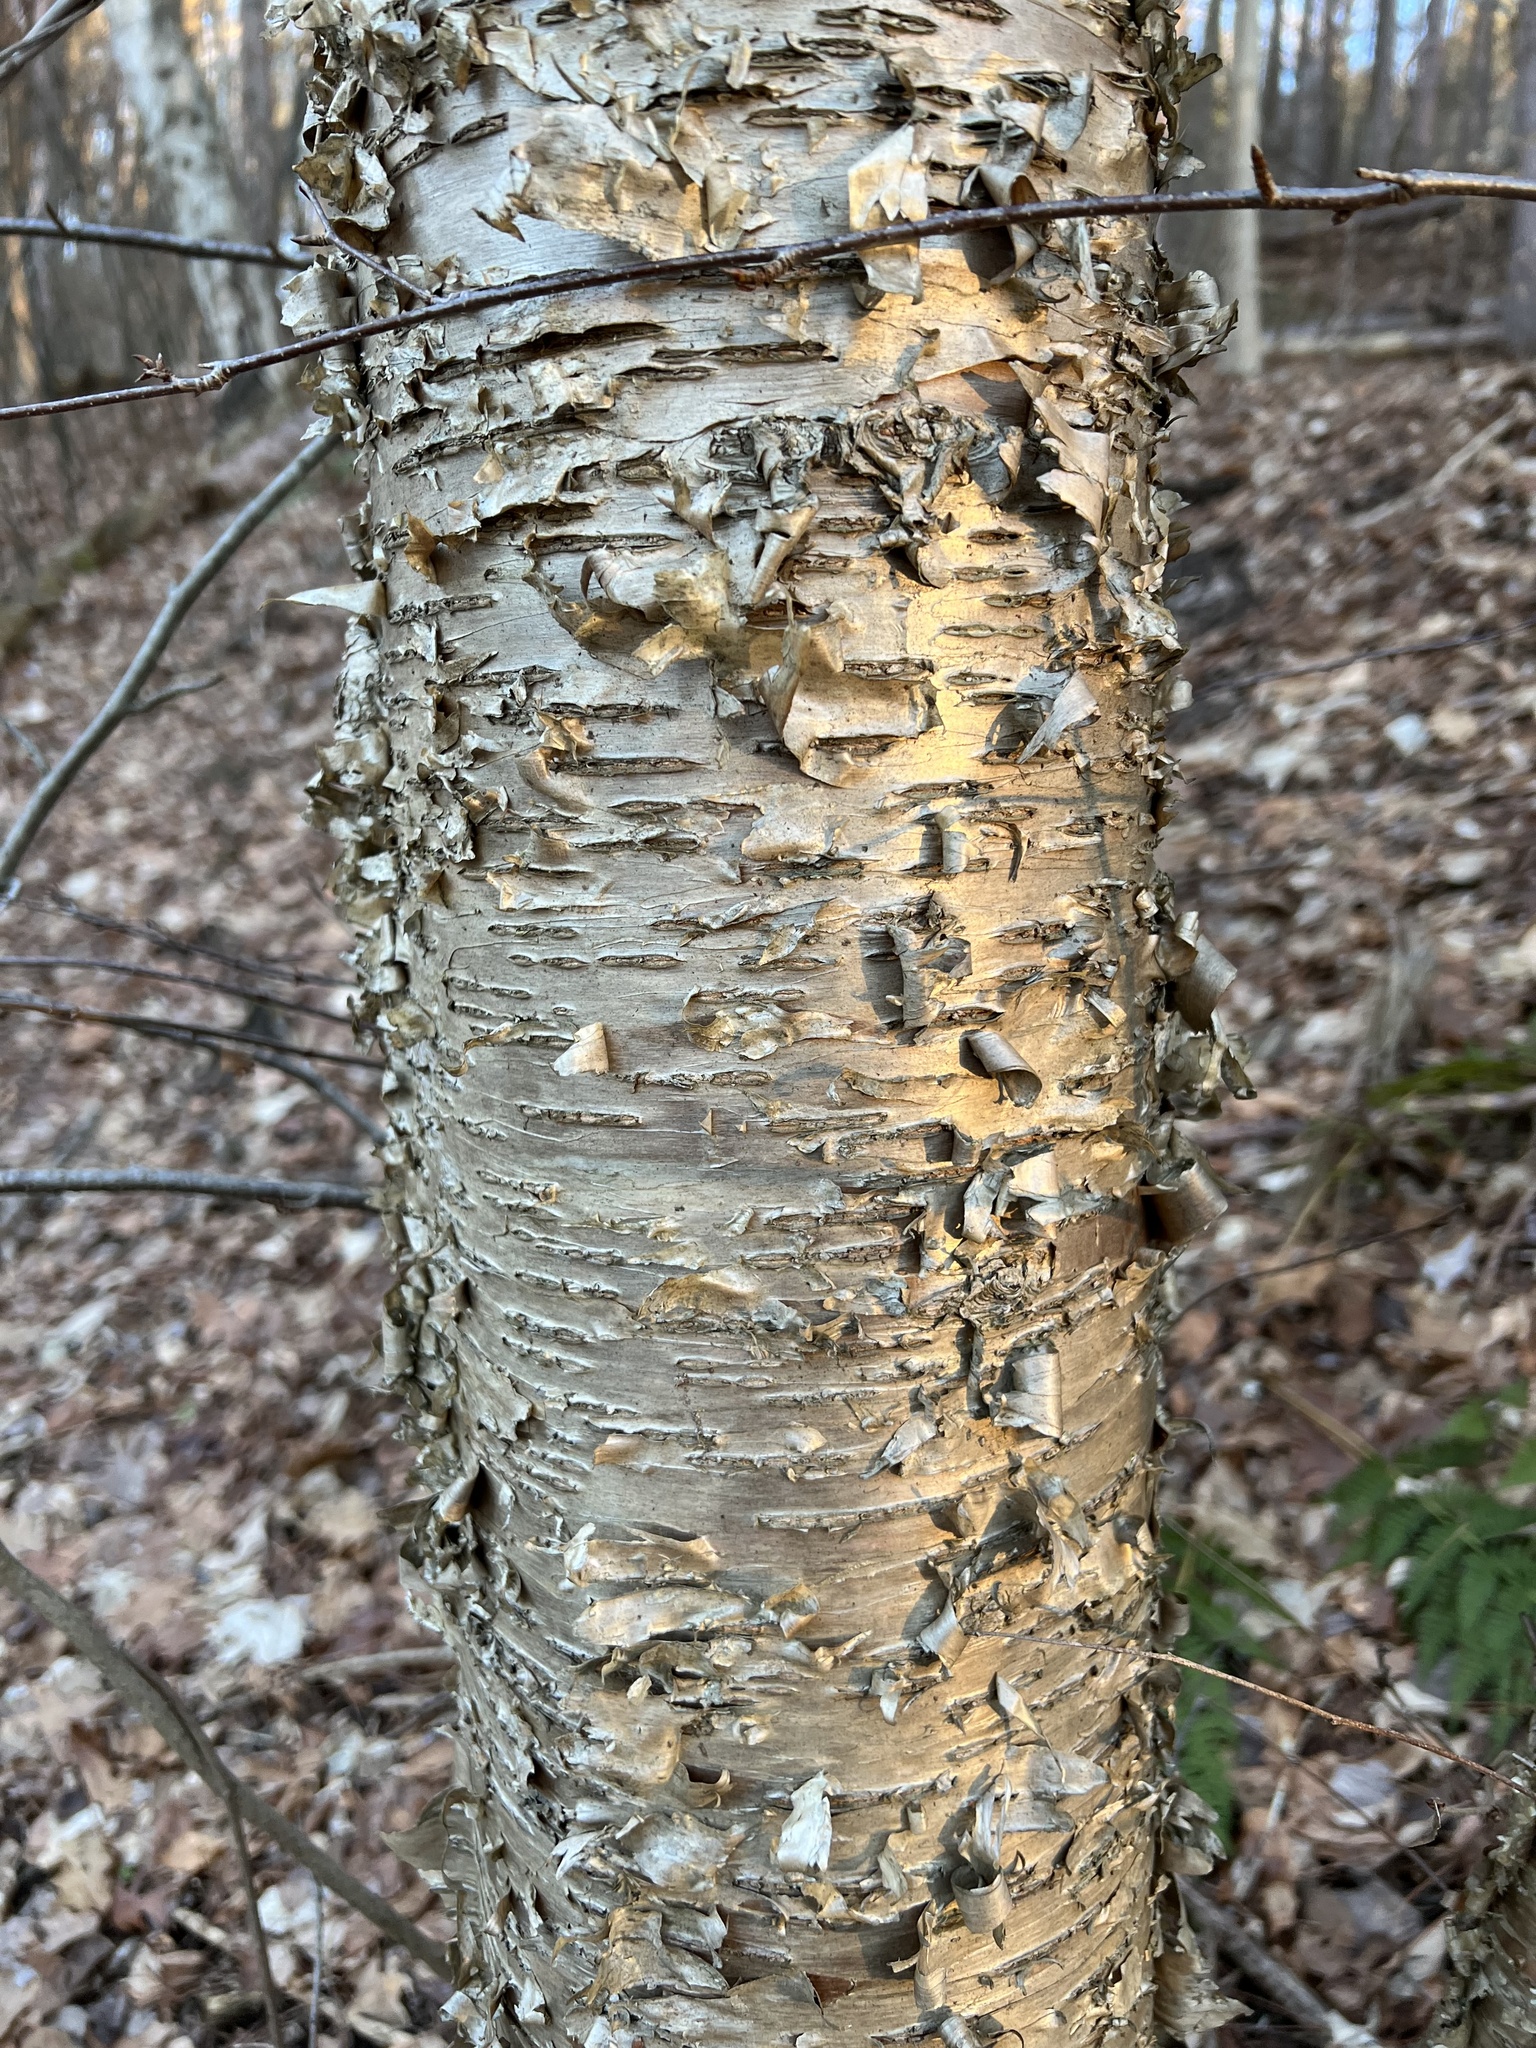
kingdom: Plantae
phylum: Tracheophyta
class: Magnoliopsida
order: Fagales
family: Betulaceae
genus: Betula
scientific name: Betula alleghaniensis
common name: Yellow birch
